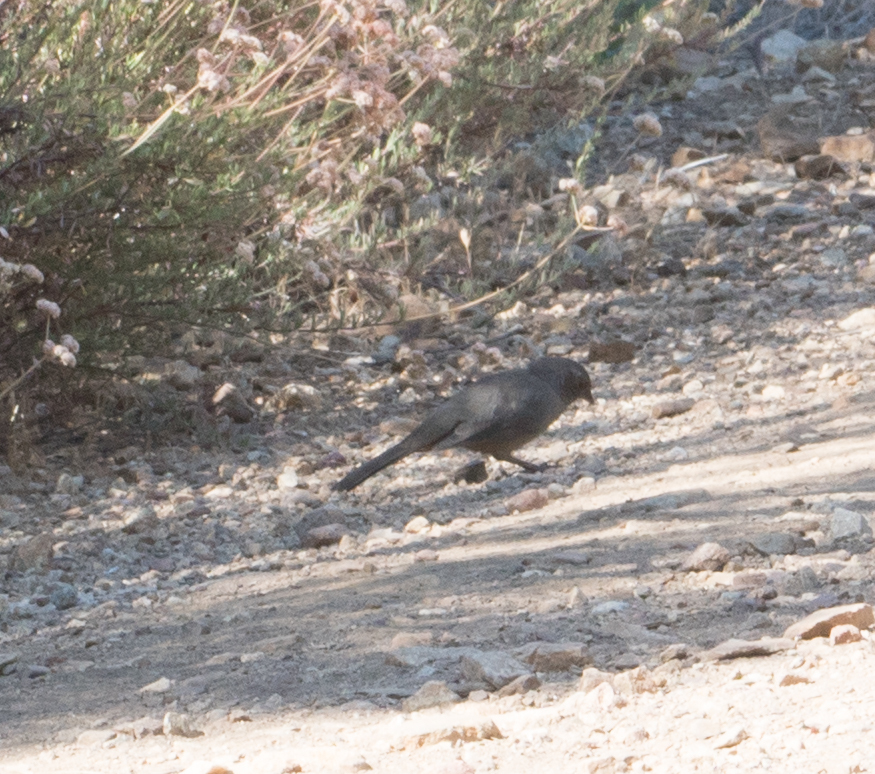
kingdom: Animalia
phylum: Chordata
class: Aves
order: Passeriformes
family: Passerellidae
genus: Melozone
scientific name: Melozone crissalis
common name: California towhee
